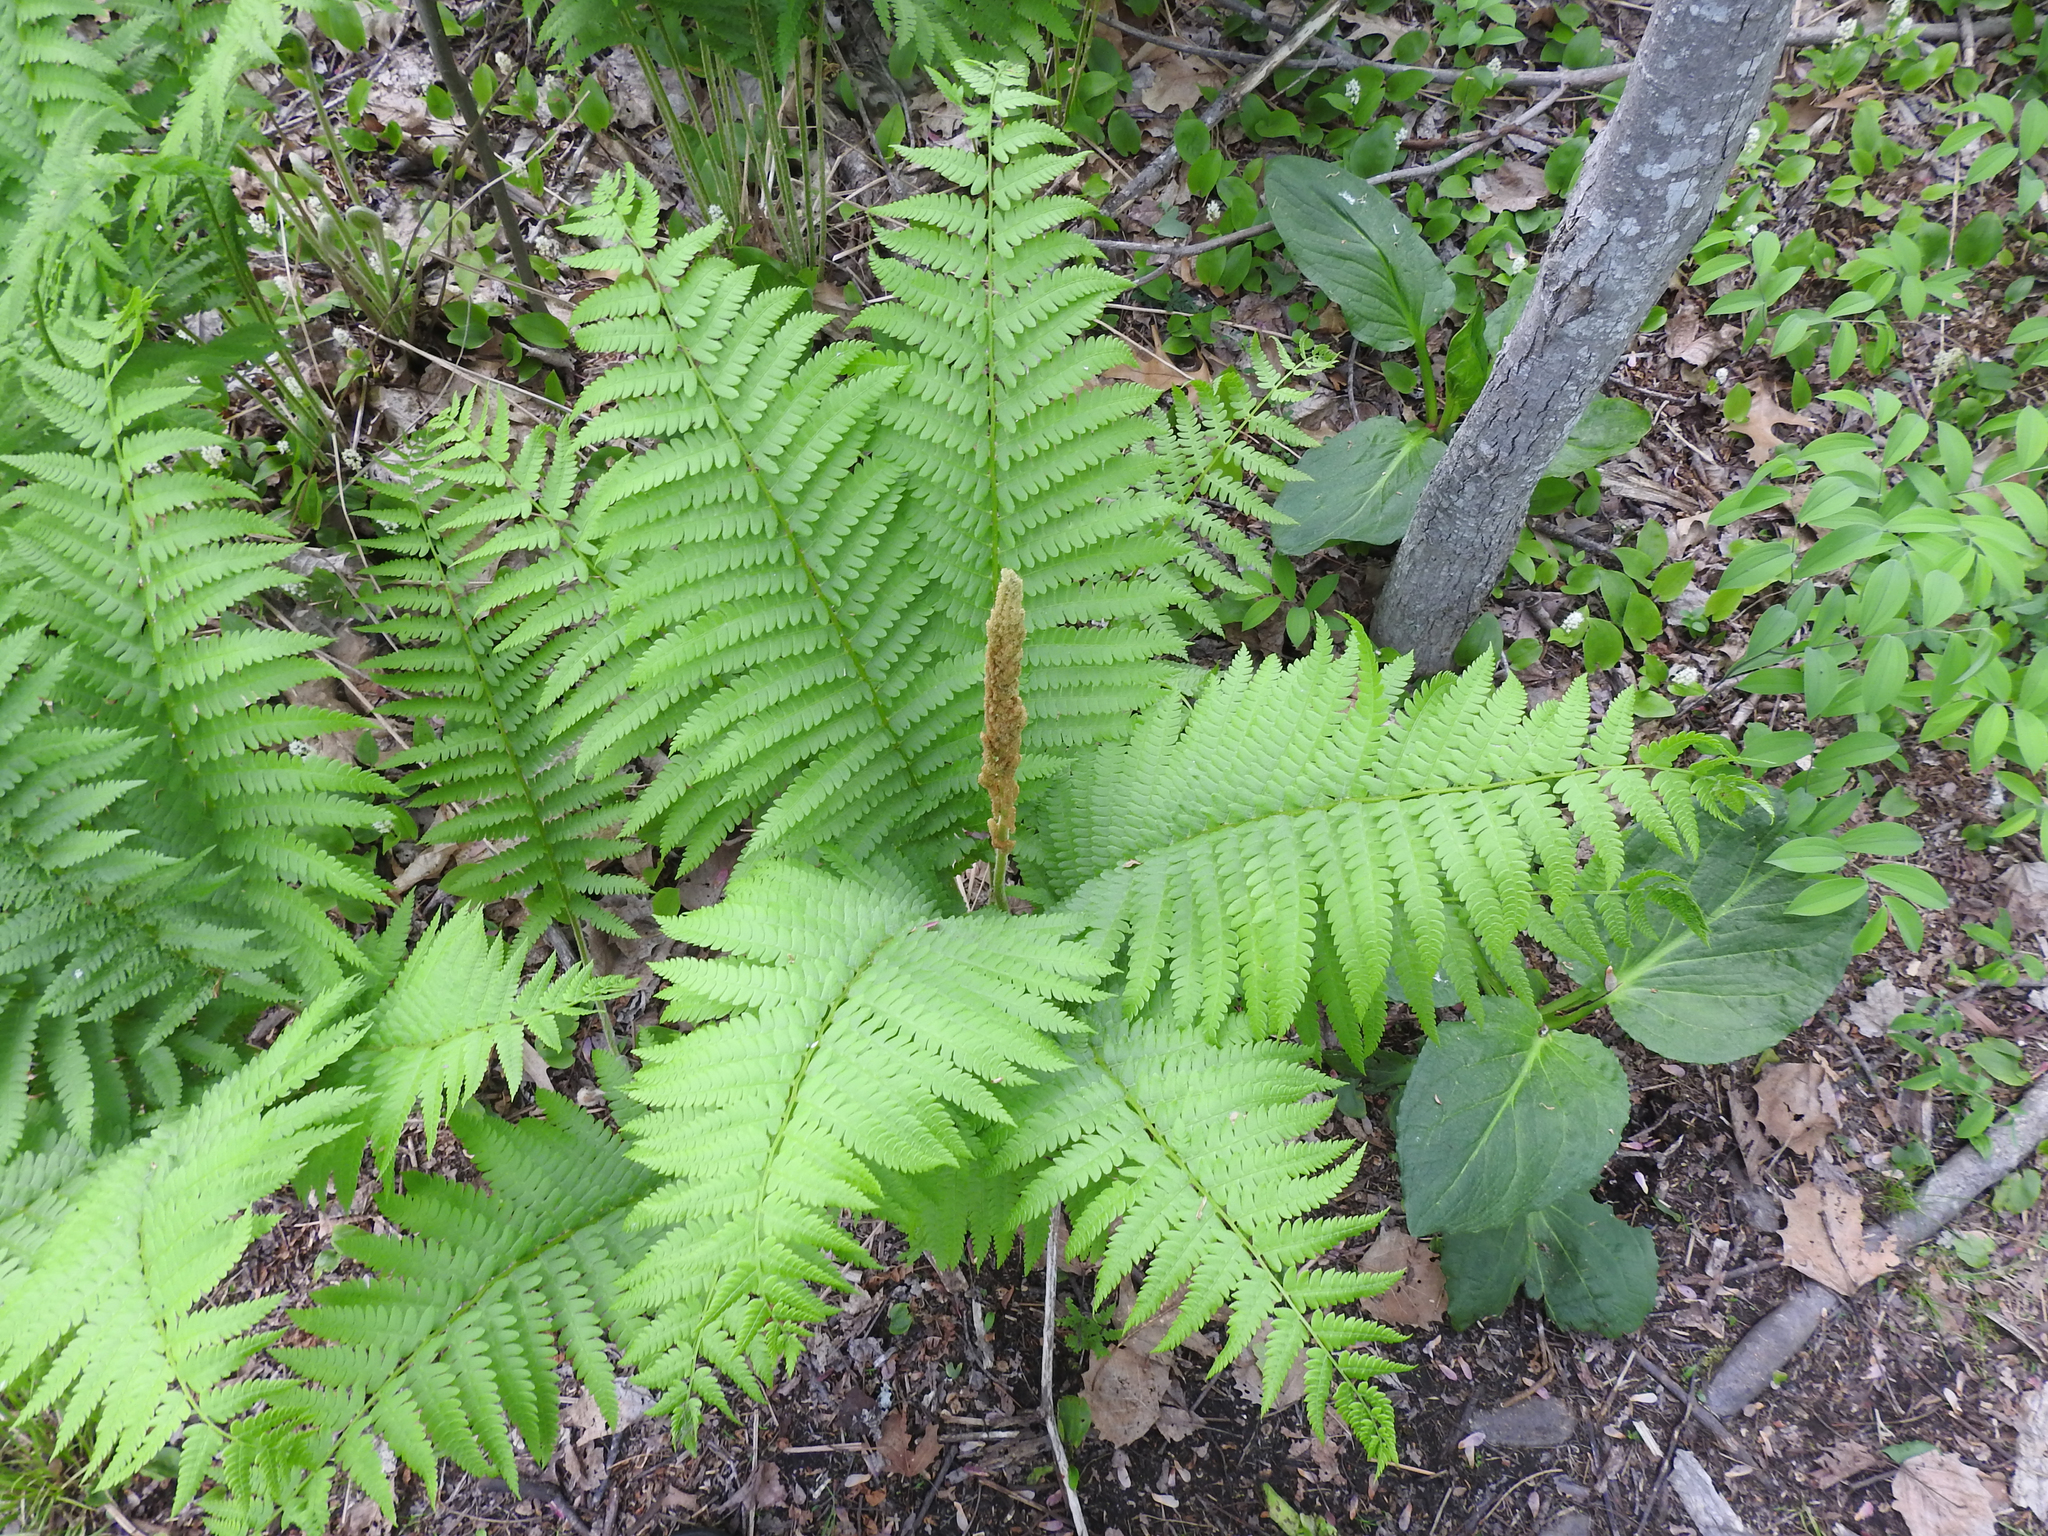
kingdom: Plantae
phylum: Tracheophyta
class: Polypodiopsida
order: Osmundales
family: Osmundaceae
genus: Osmundastrum
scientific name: Osmundastrum cinnamomeum
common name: Cinnamon fern
